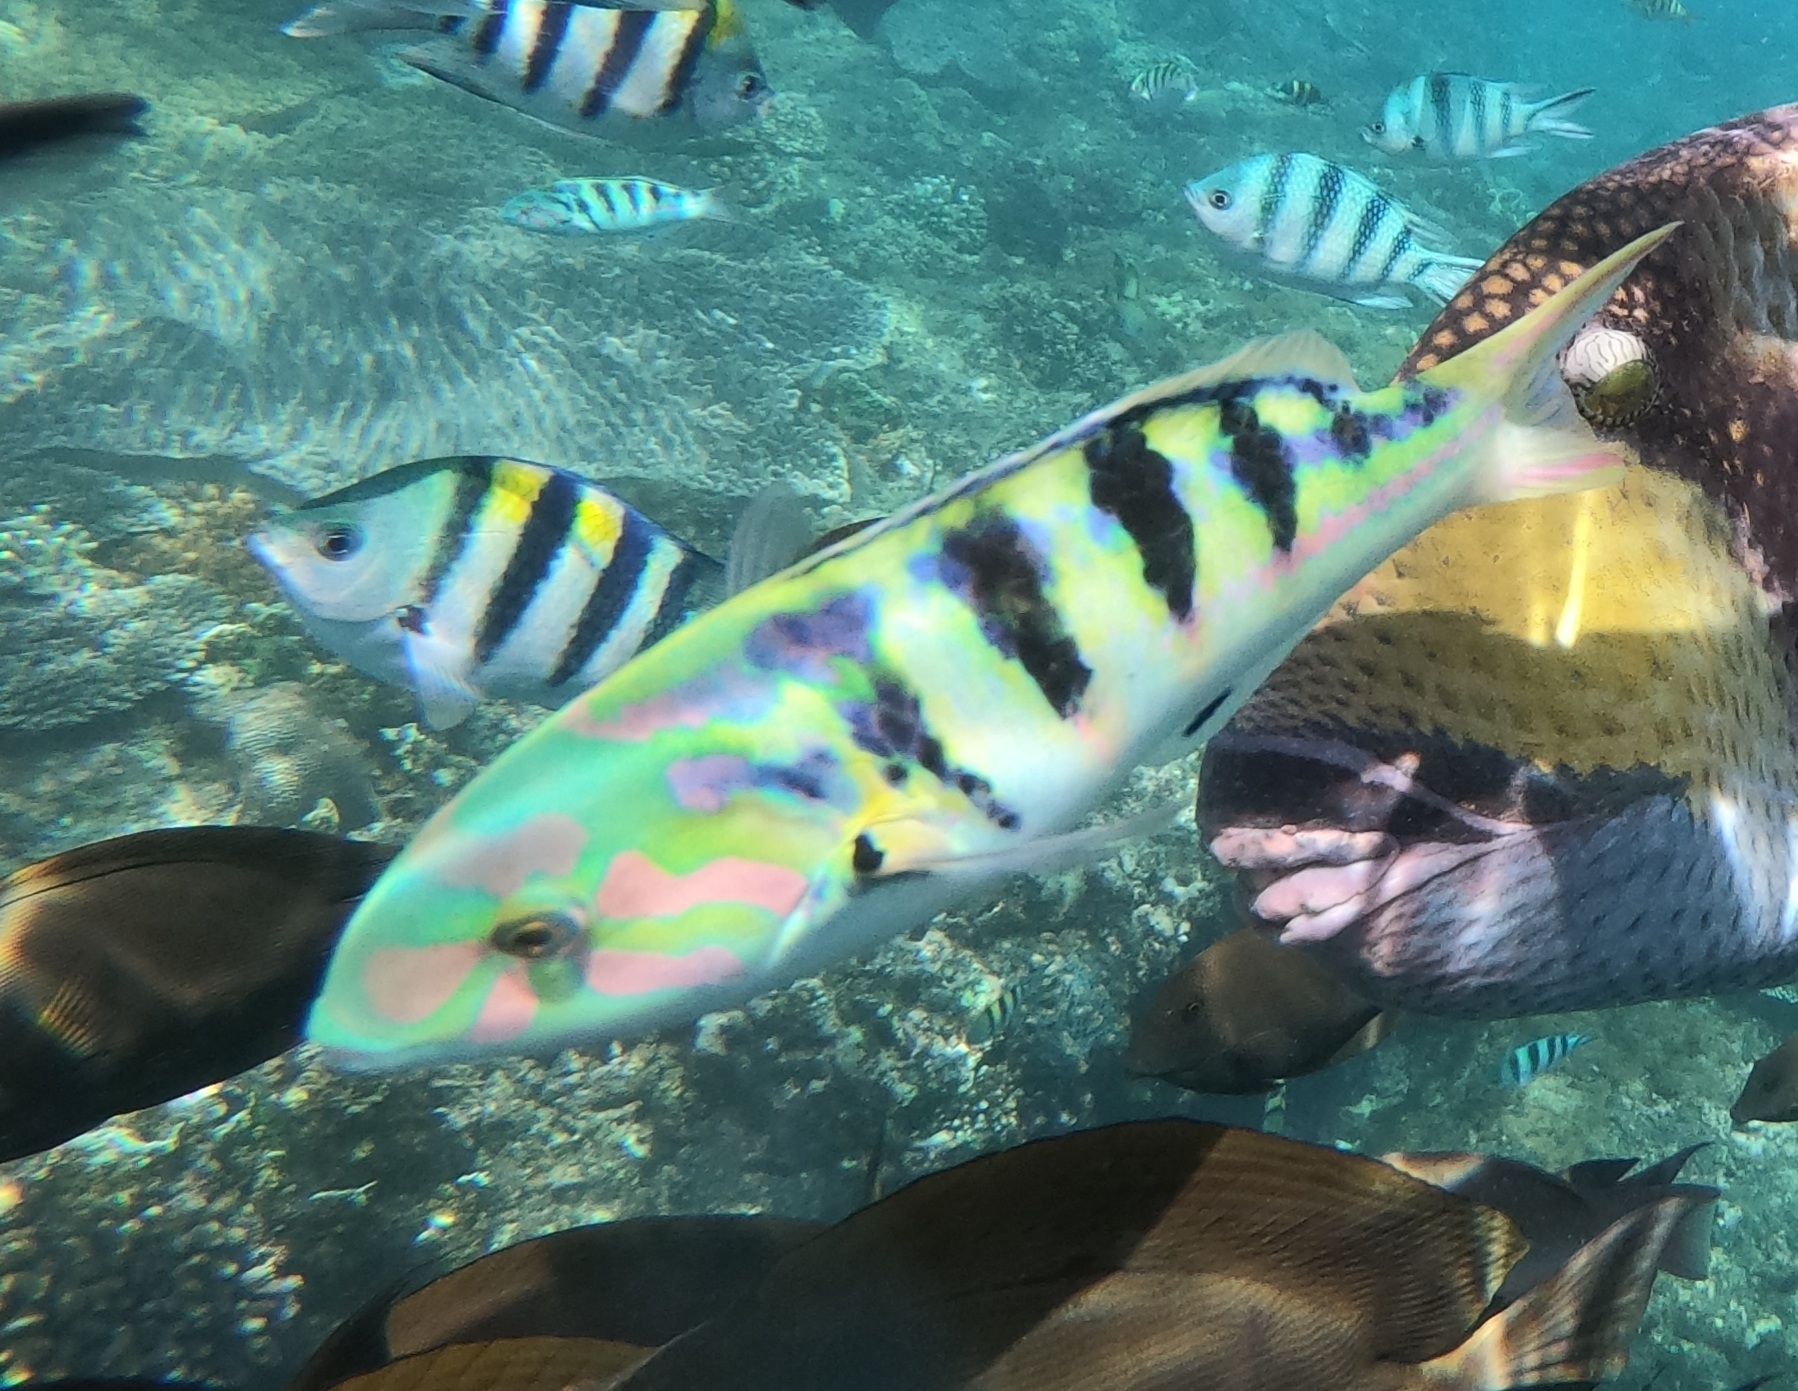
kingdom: Animalia
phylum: Chordata
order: Perciformes
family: Labridae
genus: Thalassoma
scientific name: Thalassoma hardwicke
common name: Sixbar wrasse
